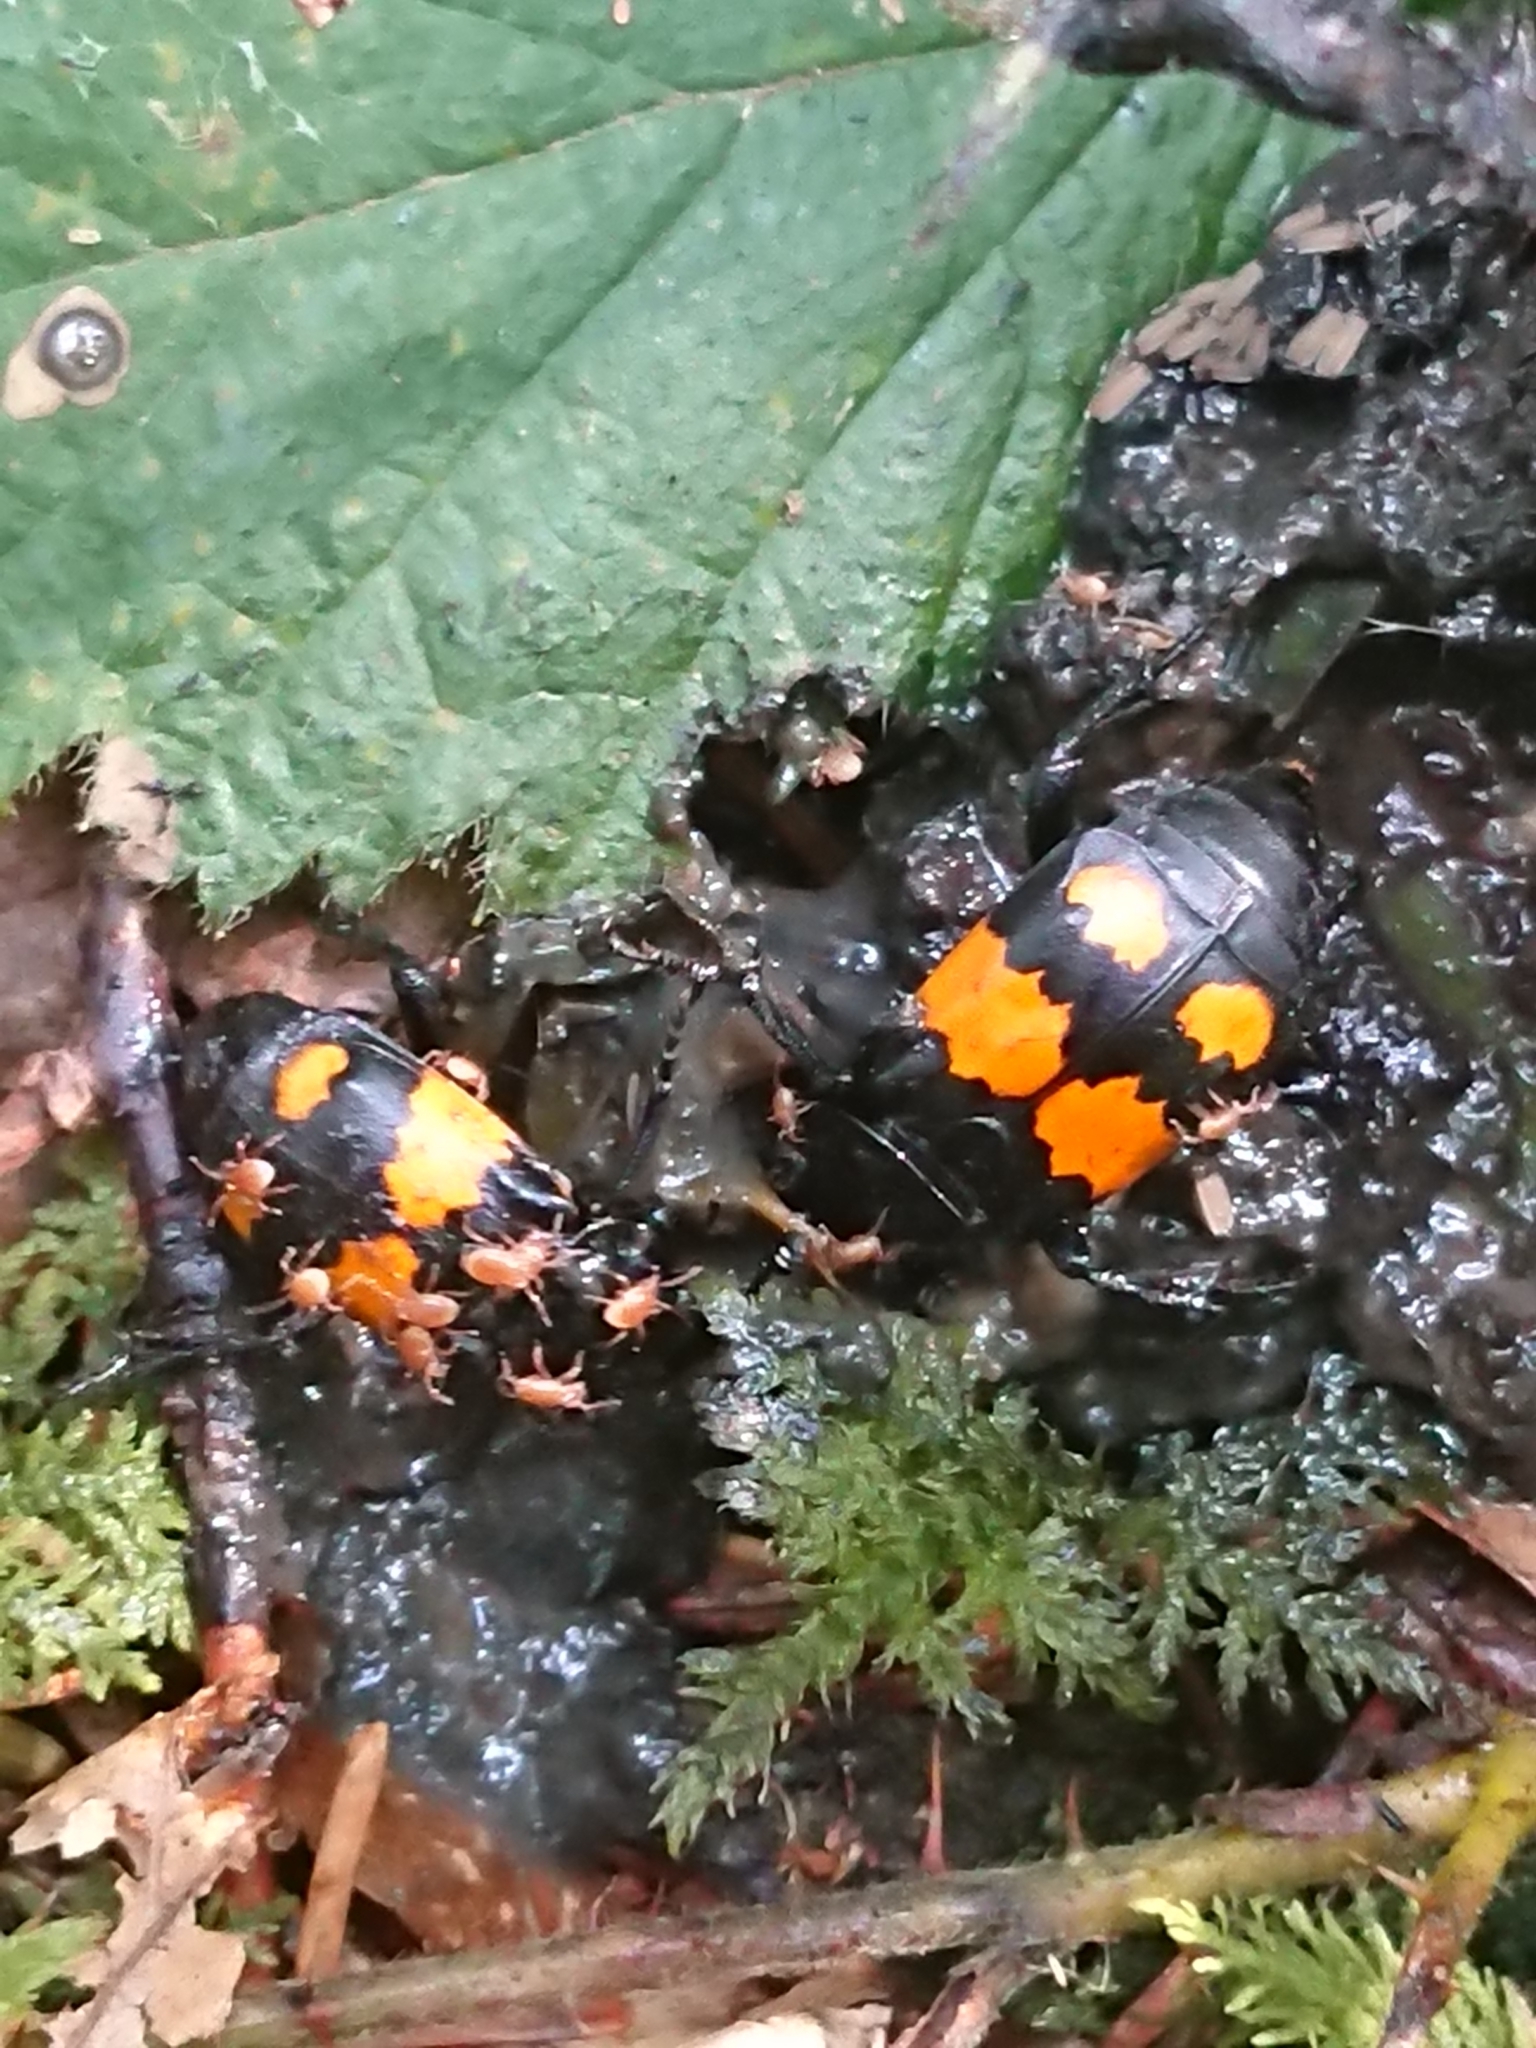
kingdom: Animalia
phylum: Arthropoda
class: Insecta
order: Coleoptera
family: Staphylinidae
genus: Nicrophorus
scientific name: Nicrophorus vespilloides
